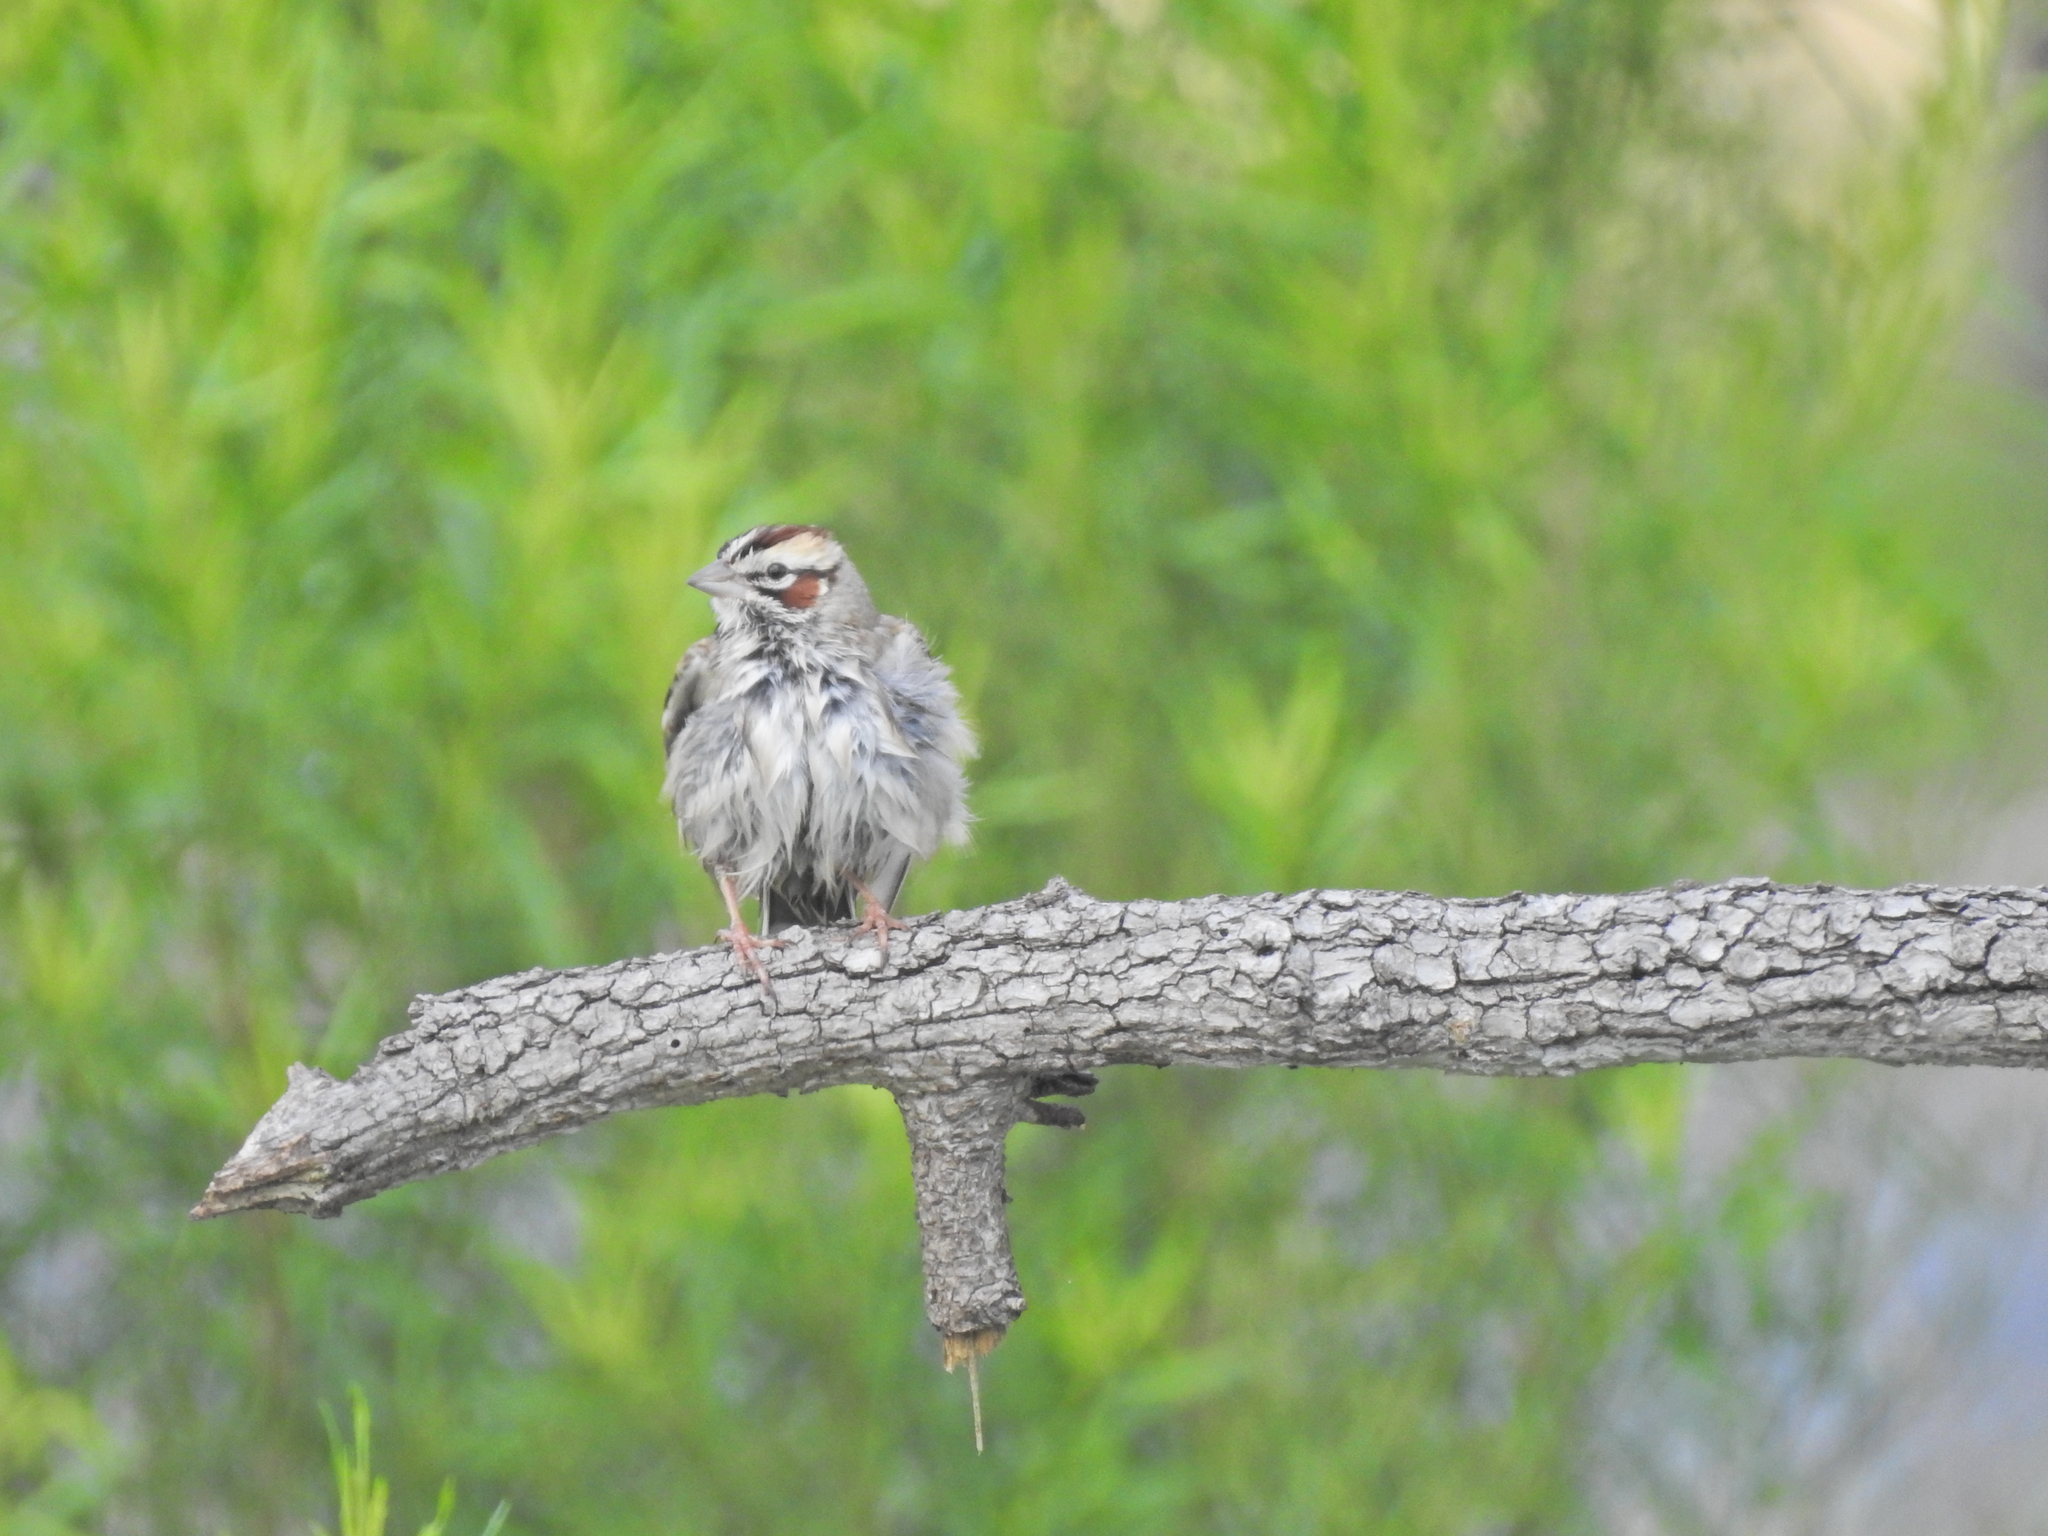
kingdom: Animalia
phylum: Chordata
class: Aves
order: Passeriformes
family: Passerellidae
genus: Chondestes
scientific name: Chondestes grammacus
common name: Lark sparrow
